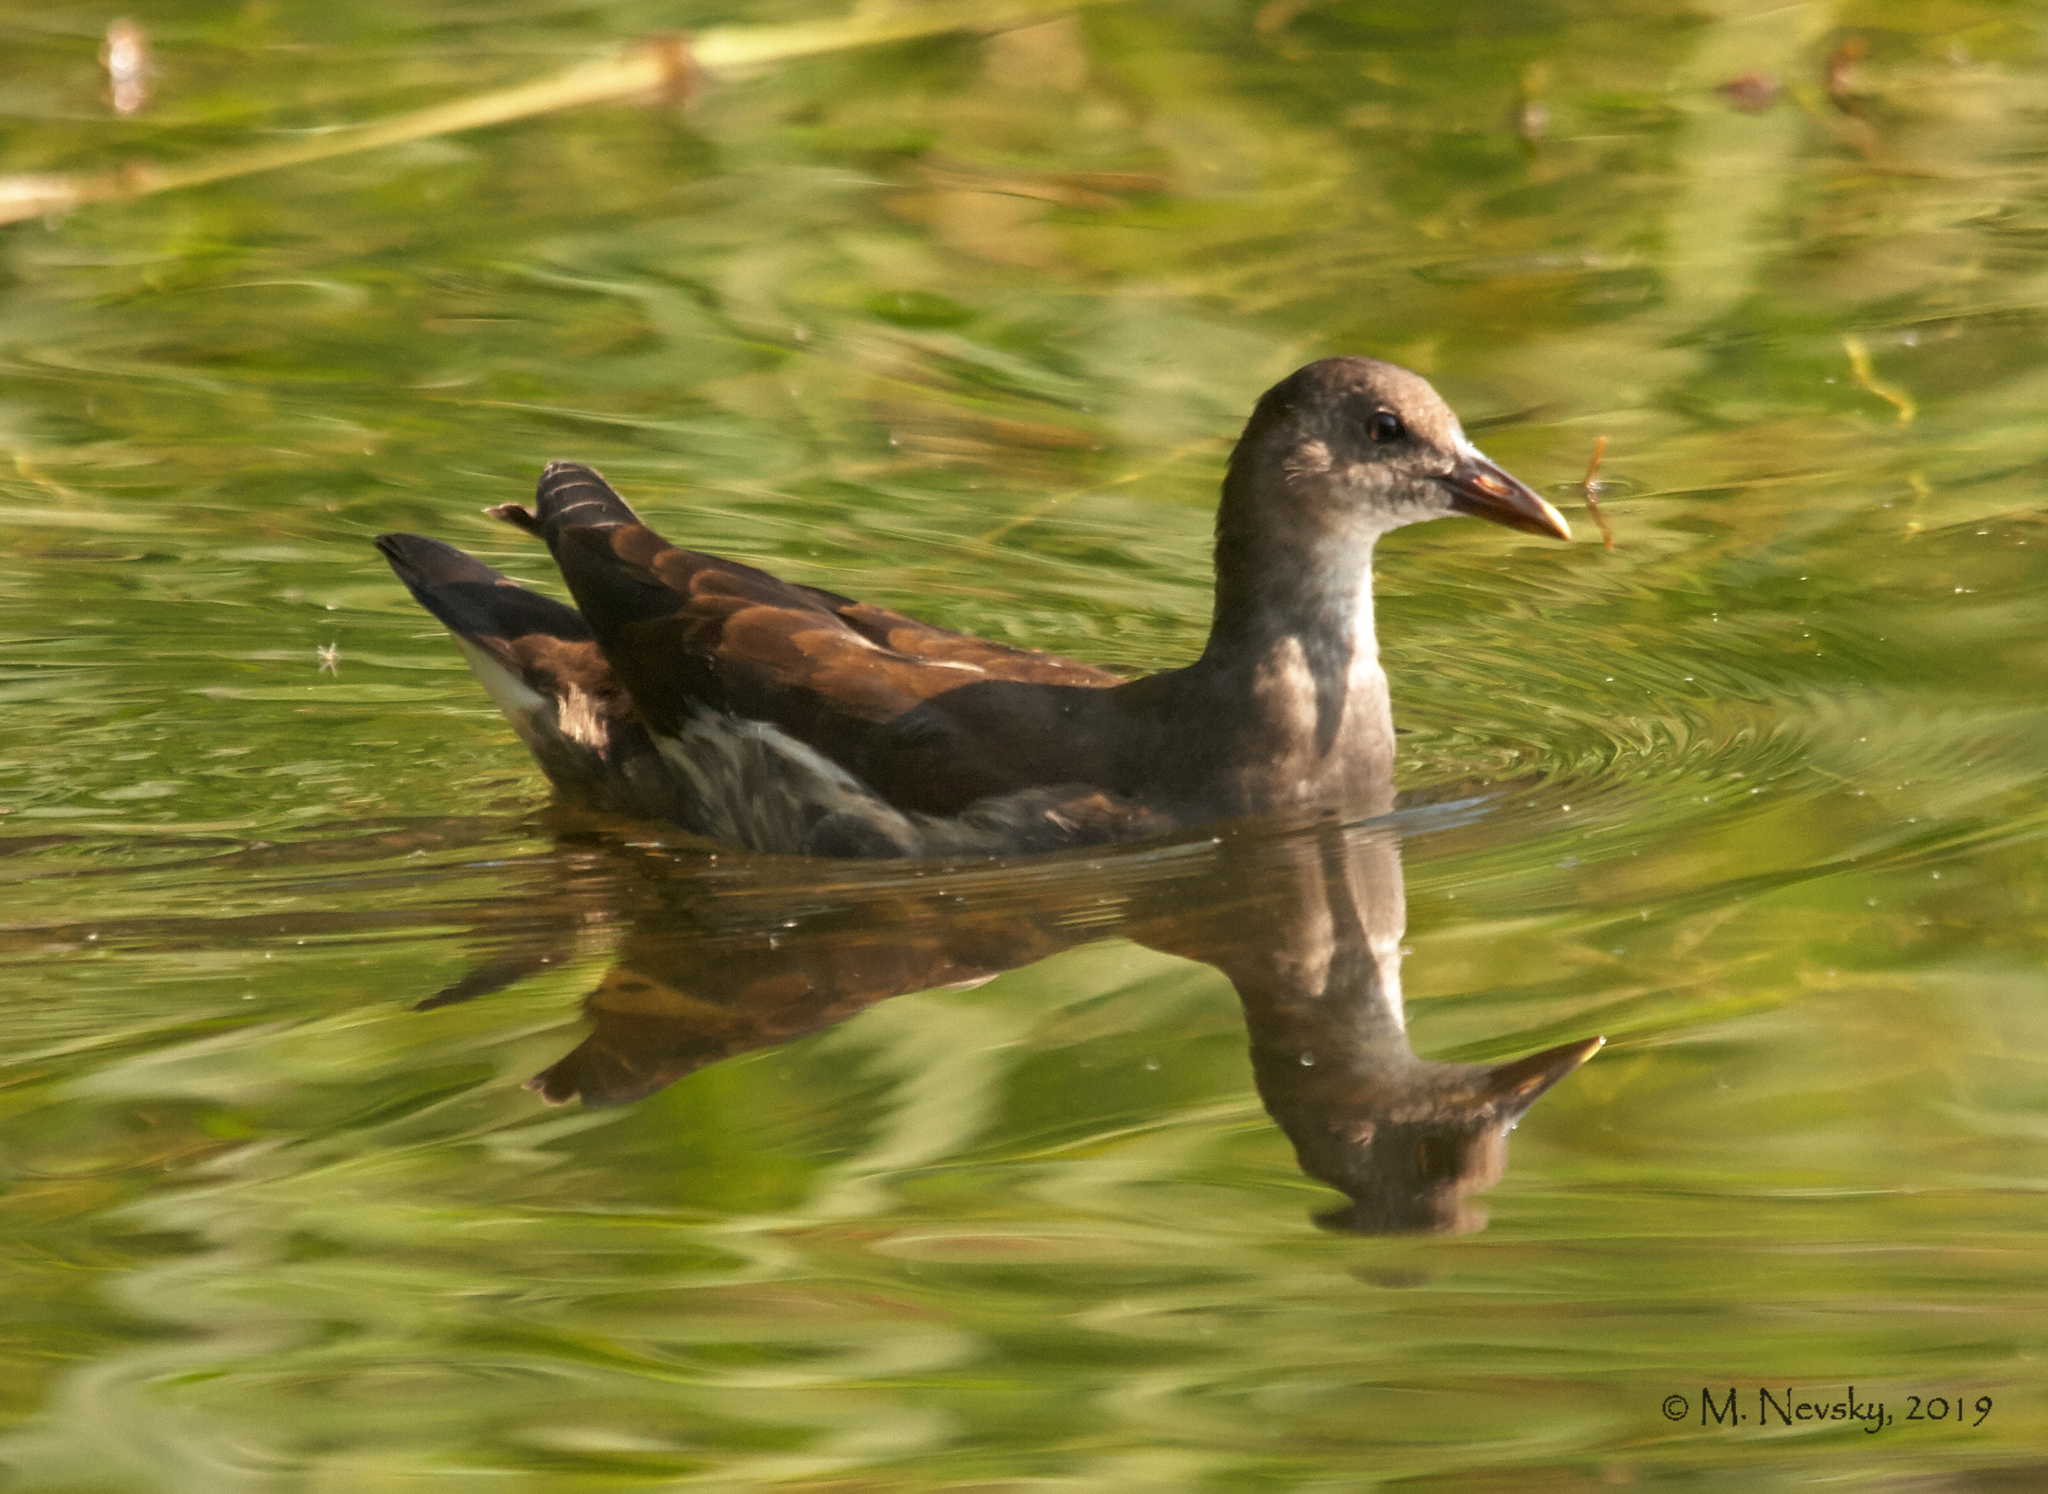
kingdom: Animalia
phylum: Chordata
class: Aves
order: Gruiformes
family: Rallidae
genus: Gallinula
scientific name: Gallinula chloropus
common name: Common moorhen
